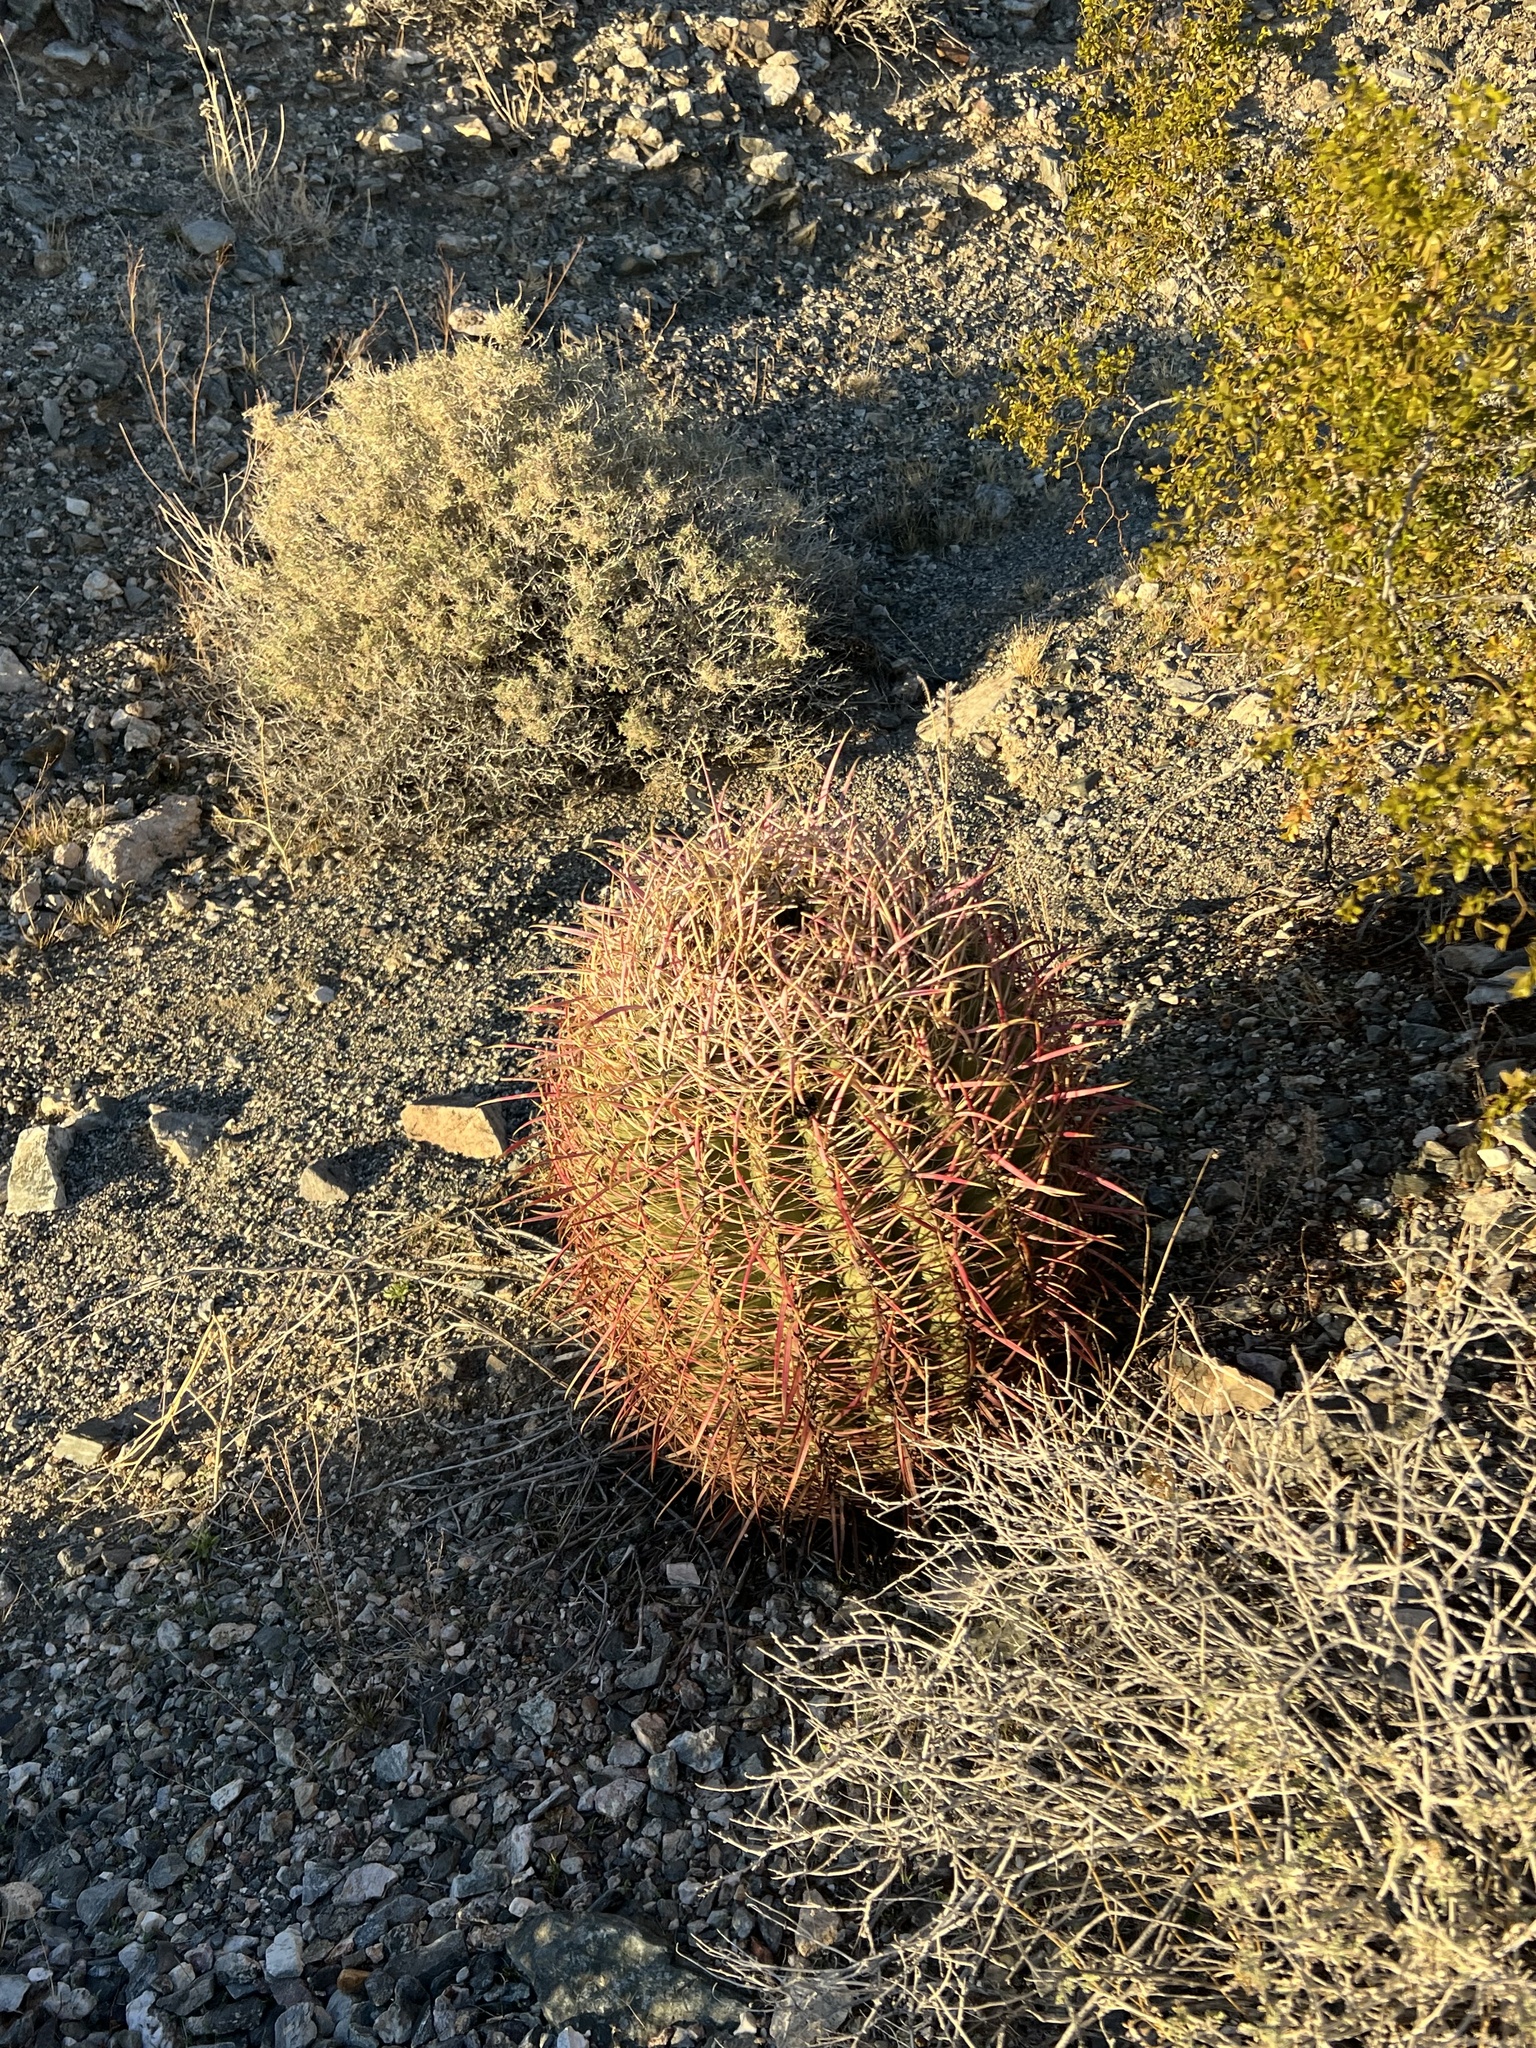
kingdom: Plantae
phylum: Tracheophyta
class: Magnoliopsida
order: Caryophyllales
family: Cactaceae
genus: Ferocactus
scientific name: Ferocactus cylindraceus
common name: California barrel cactus
